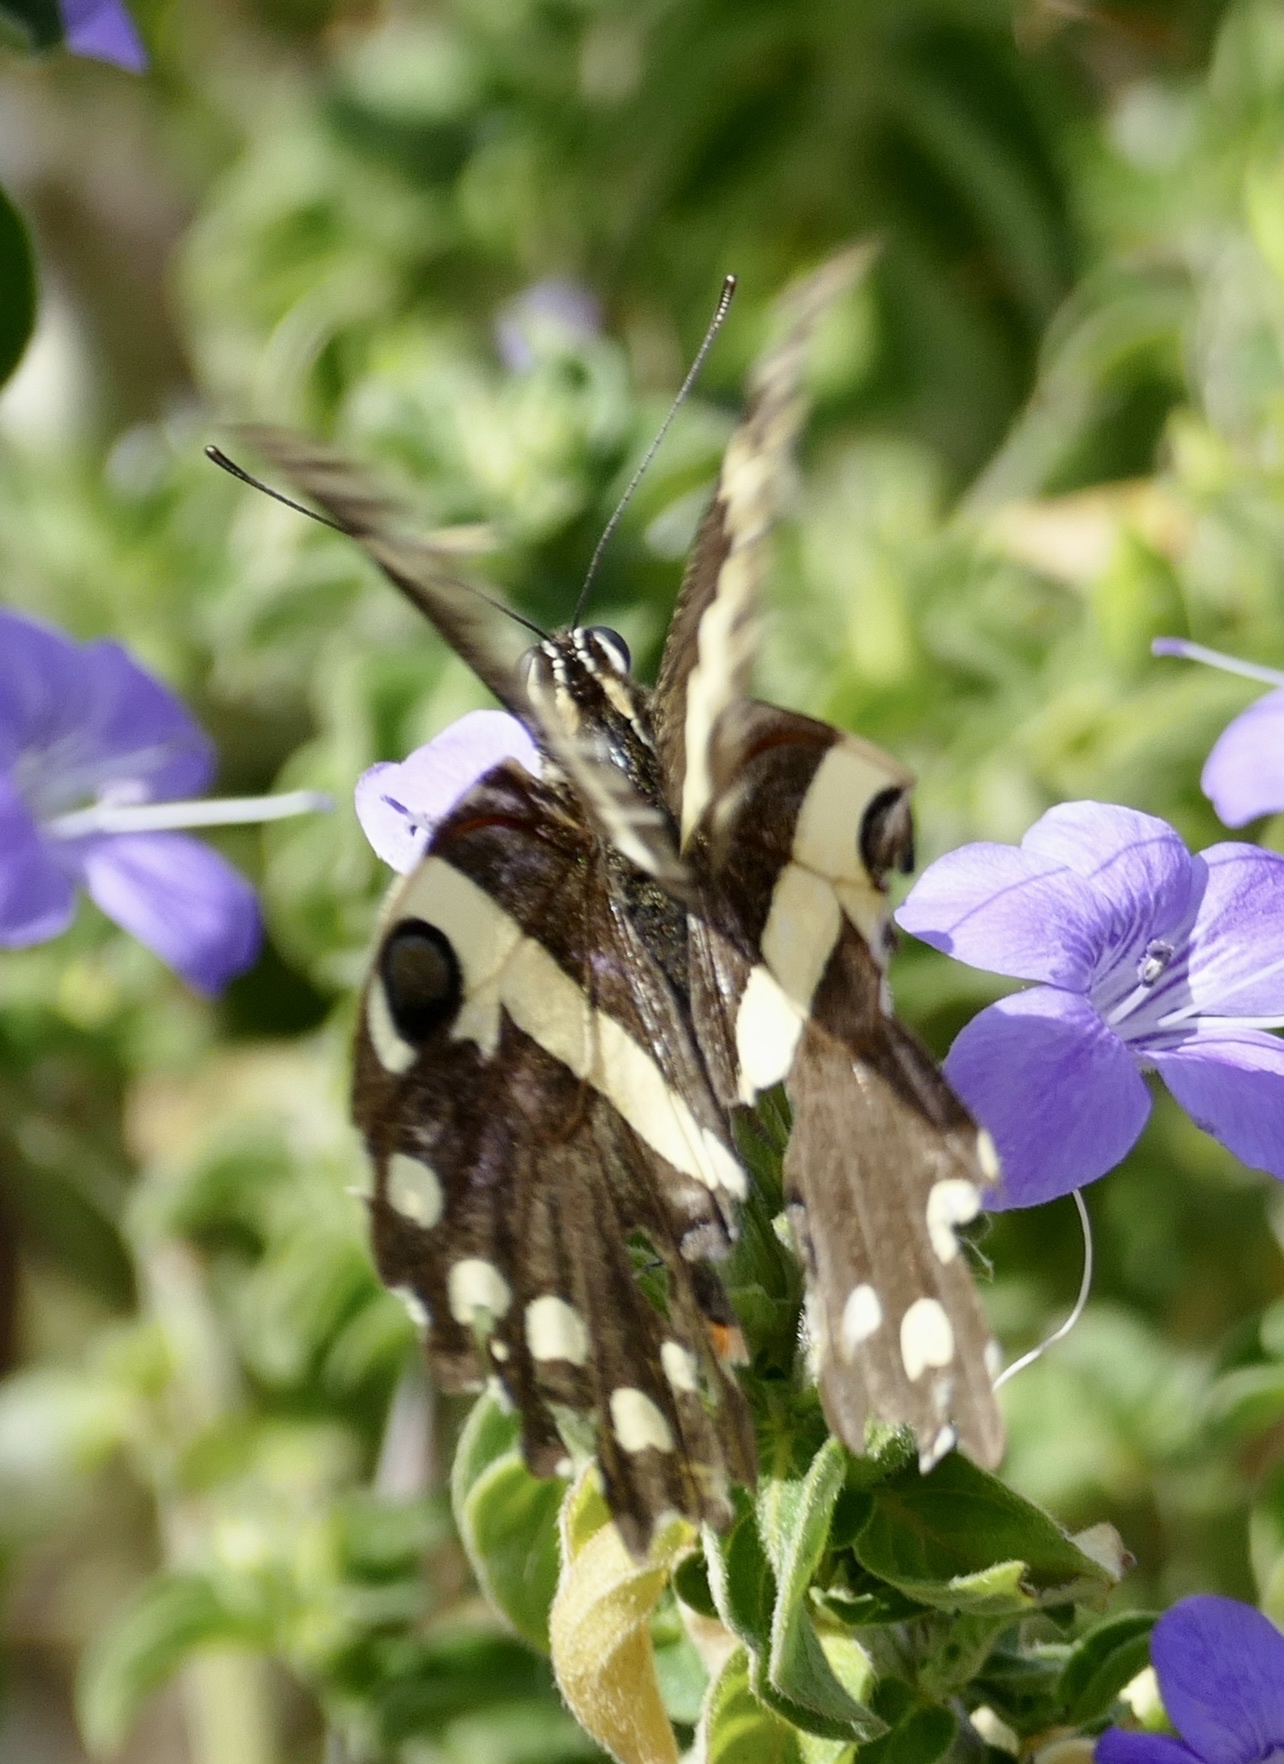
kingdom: Animalia
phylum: Arthropoda
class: Insecta
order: Lepidoptera
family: Papilionidae
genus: Papilio
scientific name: Papilio demodocus
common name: Christmas butterfly
